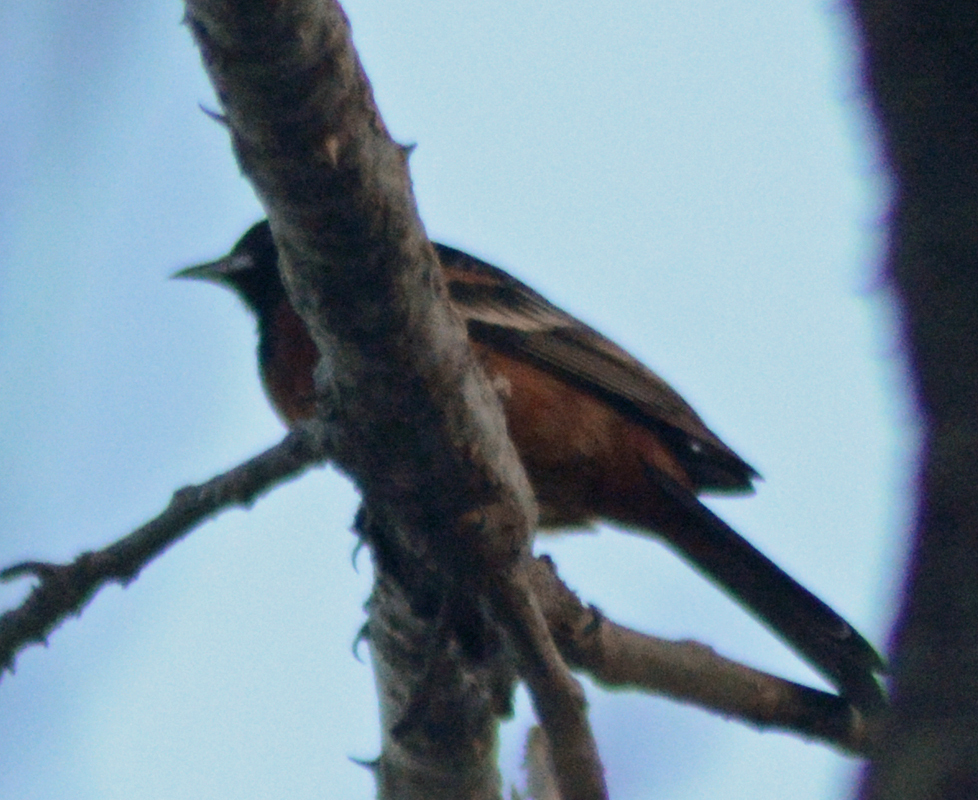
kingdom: Animalia
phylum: Chordata
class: Aves
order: Passeriformes
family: Icteridae
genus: Icterus
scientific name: Icterus spurius
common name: Orchard oriole
